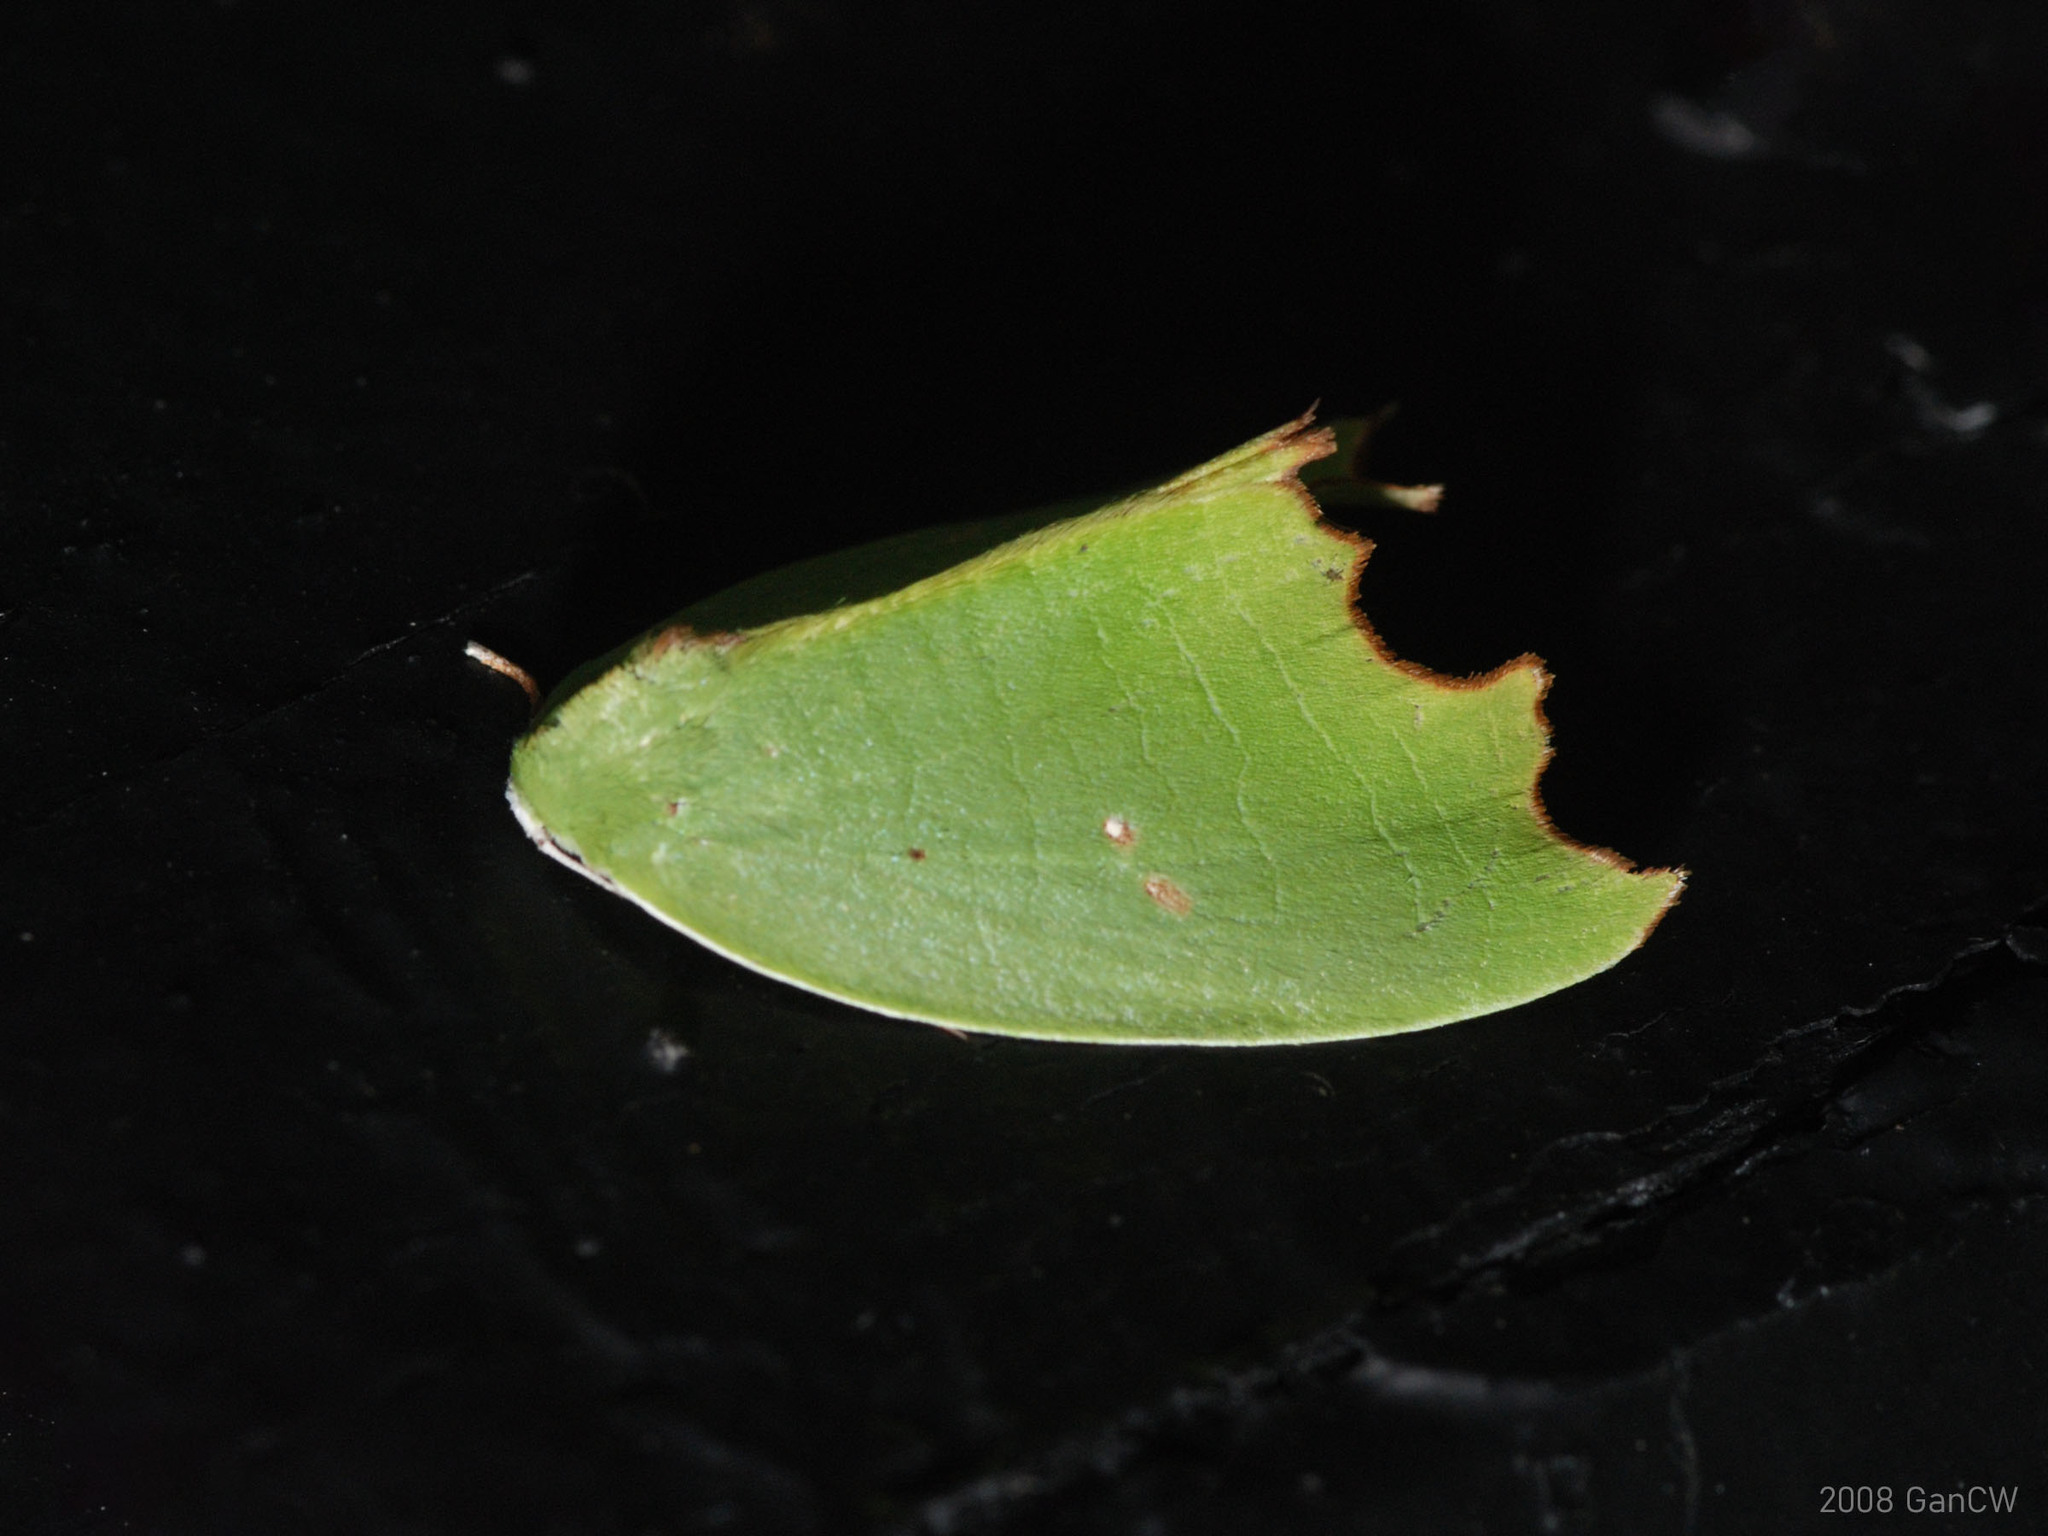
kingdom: Animalia
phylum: Arthropoda
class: Insecta
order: Lepidoptera
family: Noctuidae
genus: Plagerepne
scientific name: Plagerepne torquata
